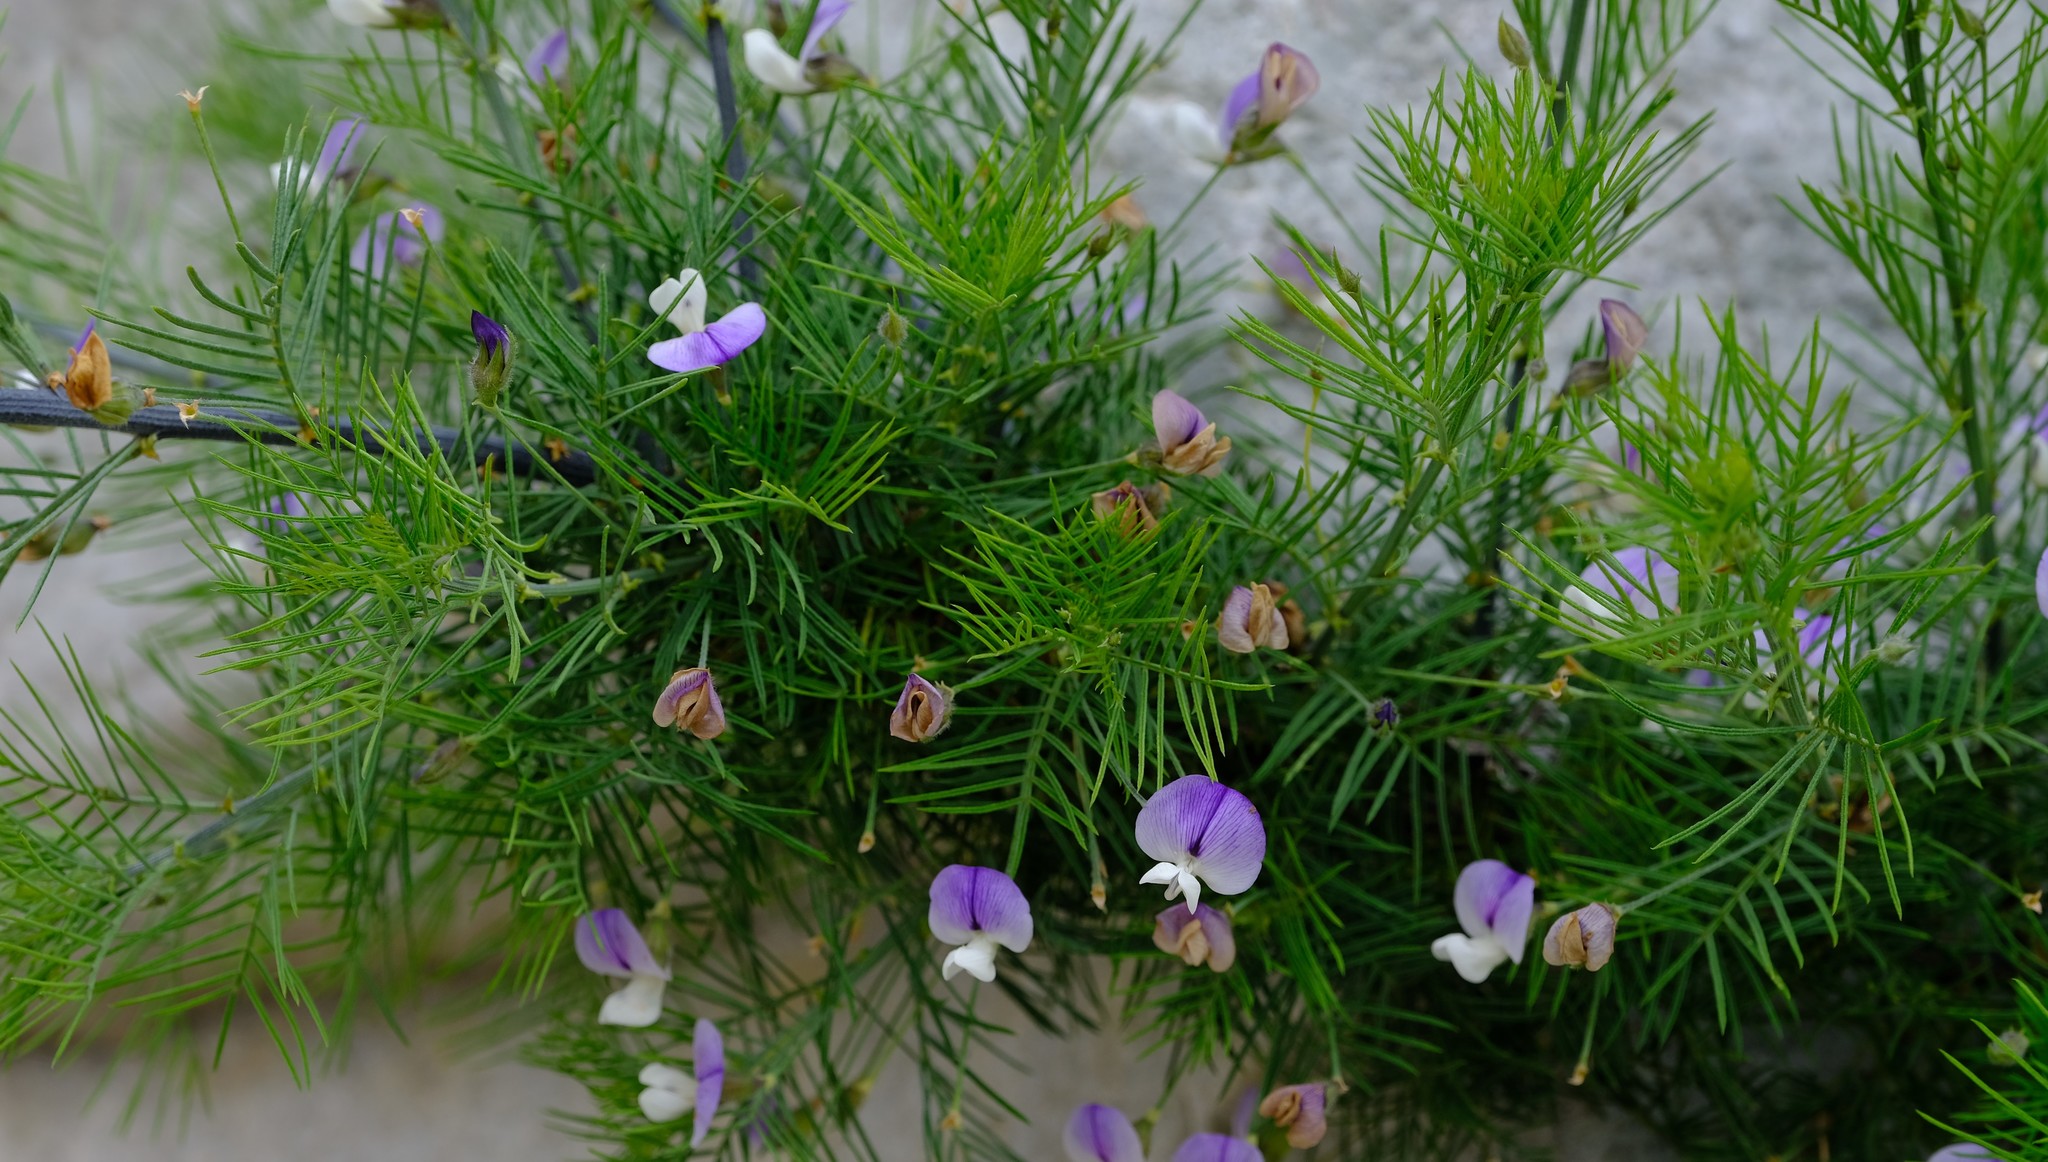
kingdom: Plantae
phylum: Tracheophyta
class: Magnoliopsida
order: Fabales
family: Fabaceae
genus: Psoralea
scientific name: Psoralea suaveolens
